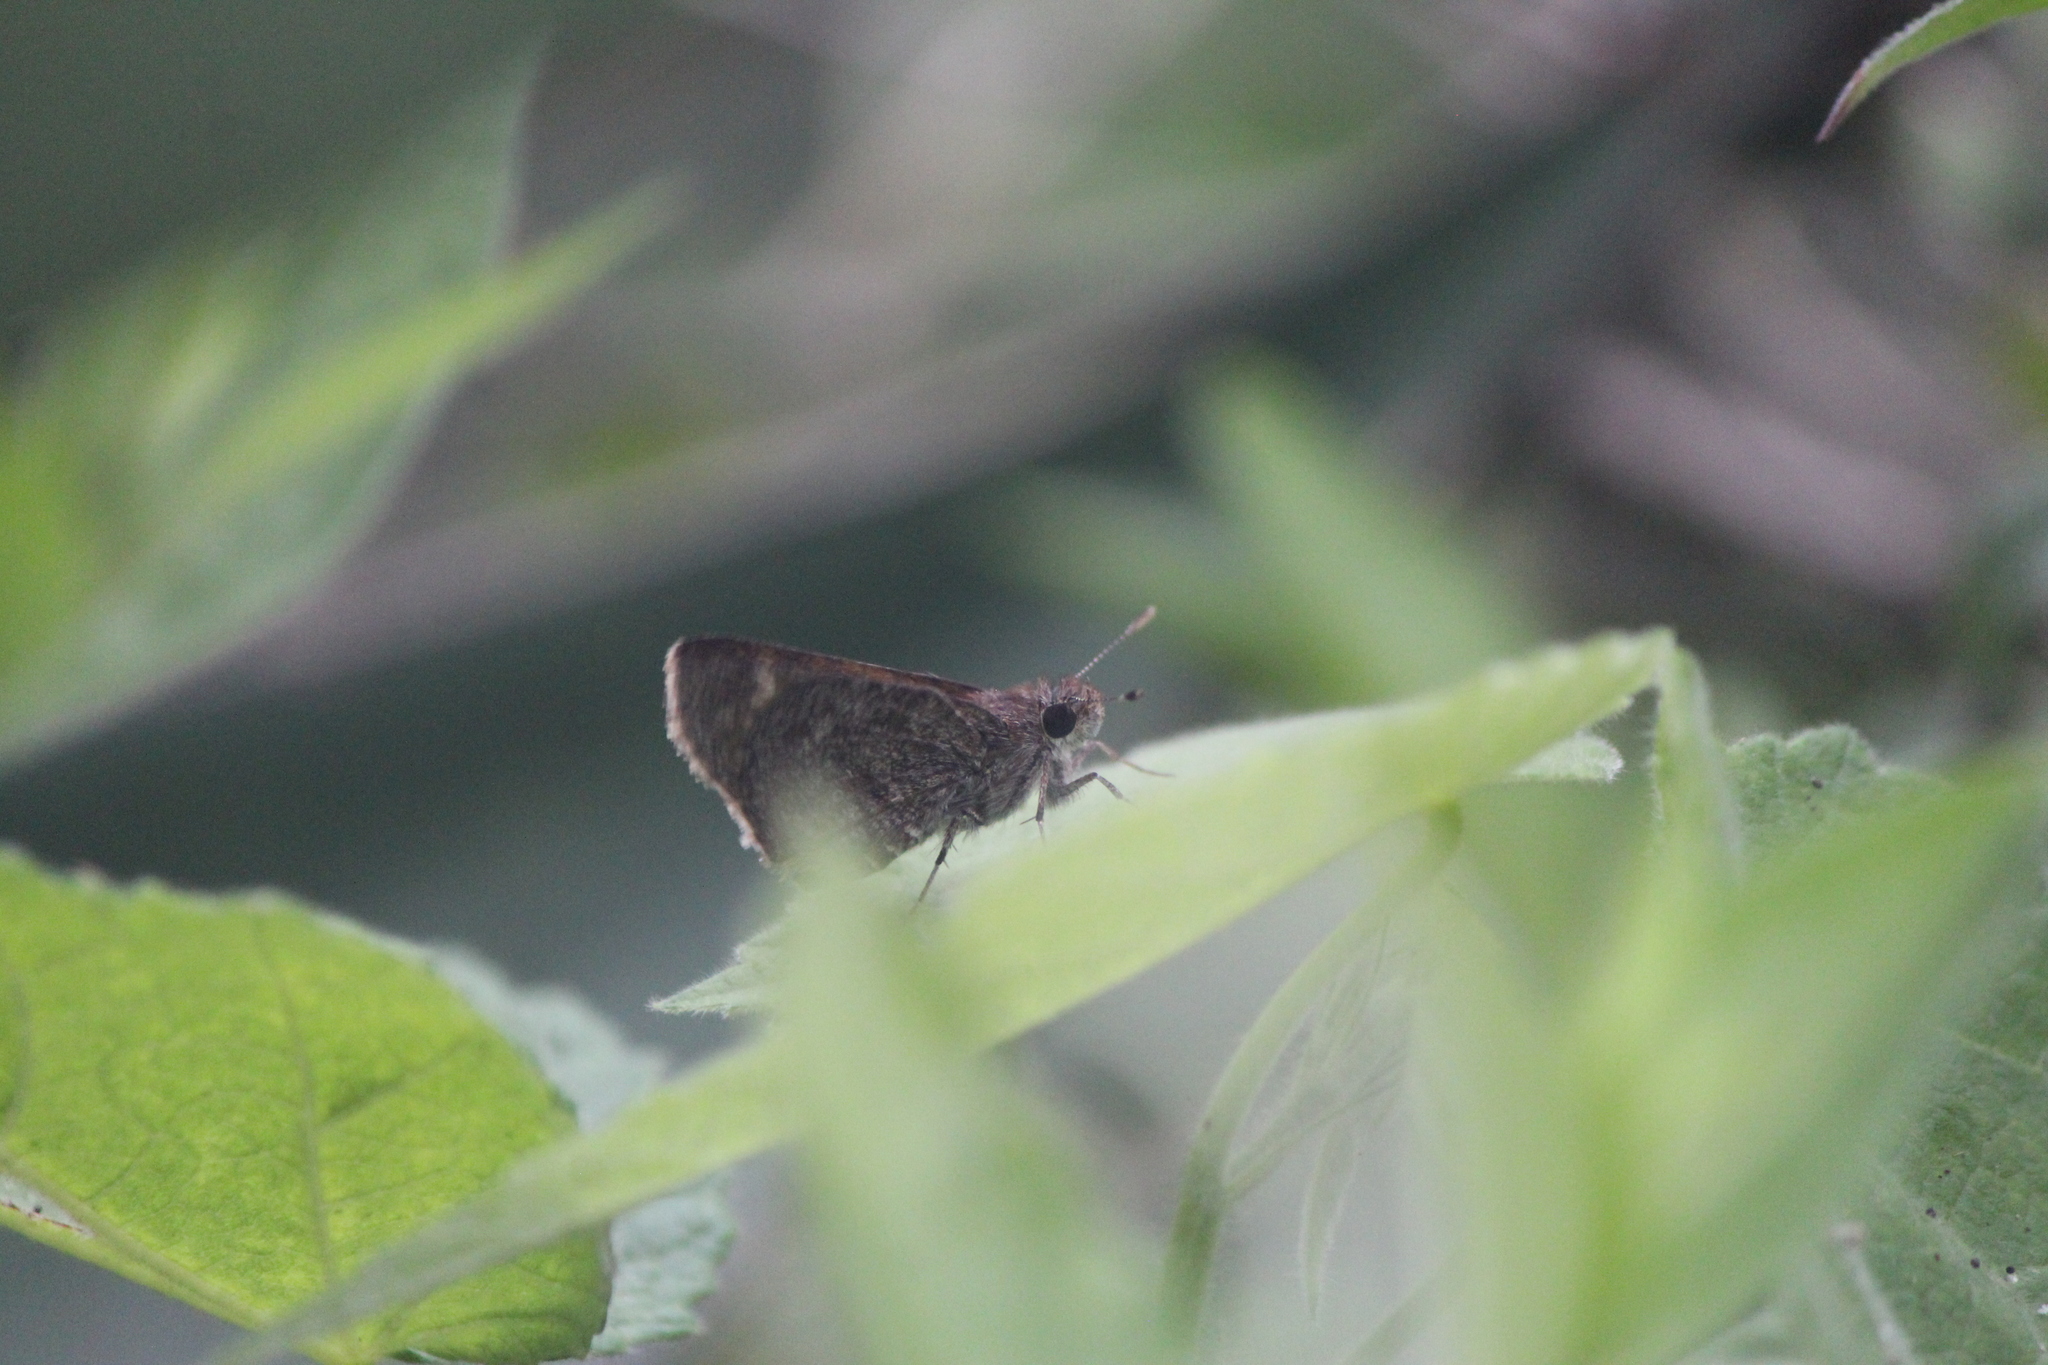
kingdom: Animalia
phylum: Arthropoda
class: Insecta
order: Lepidoptera
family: Hesperiidae
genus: Mastor
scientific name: Mastor fluonia
